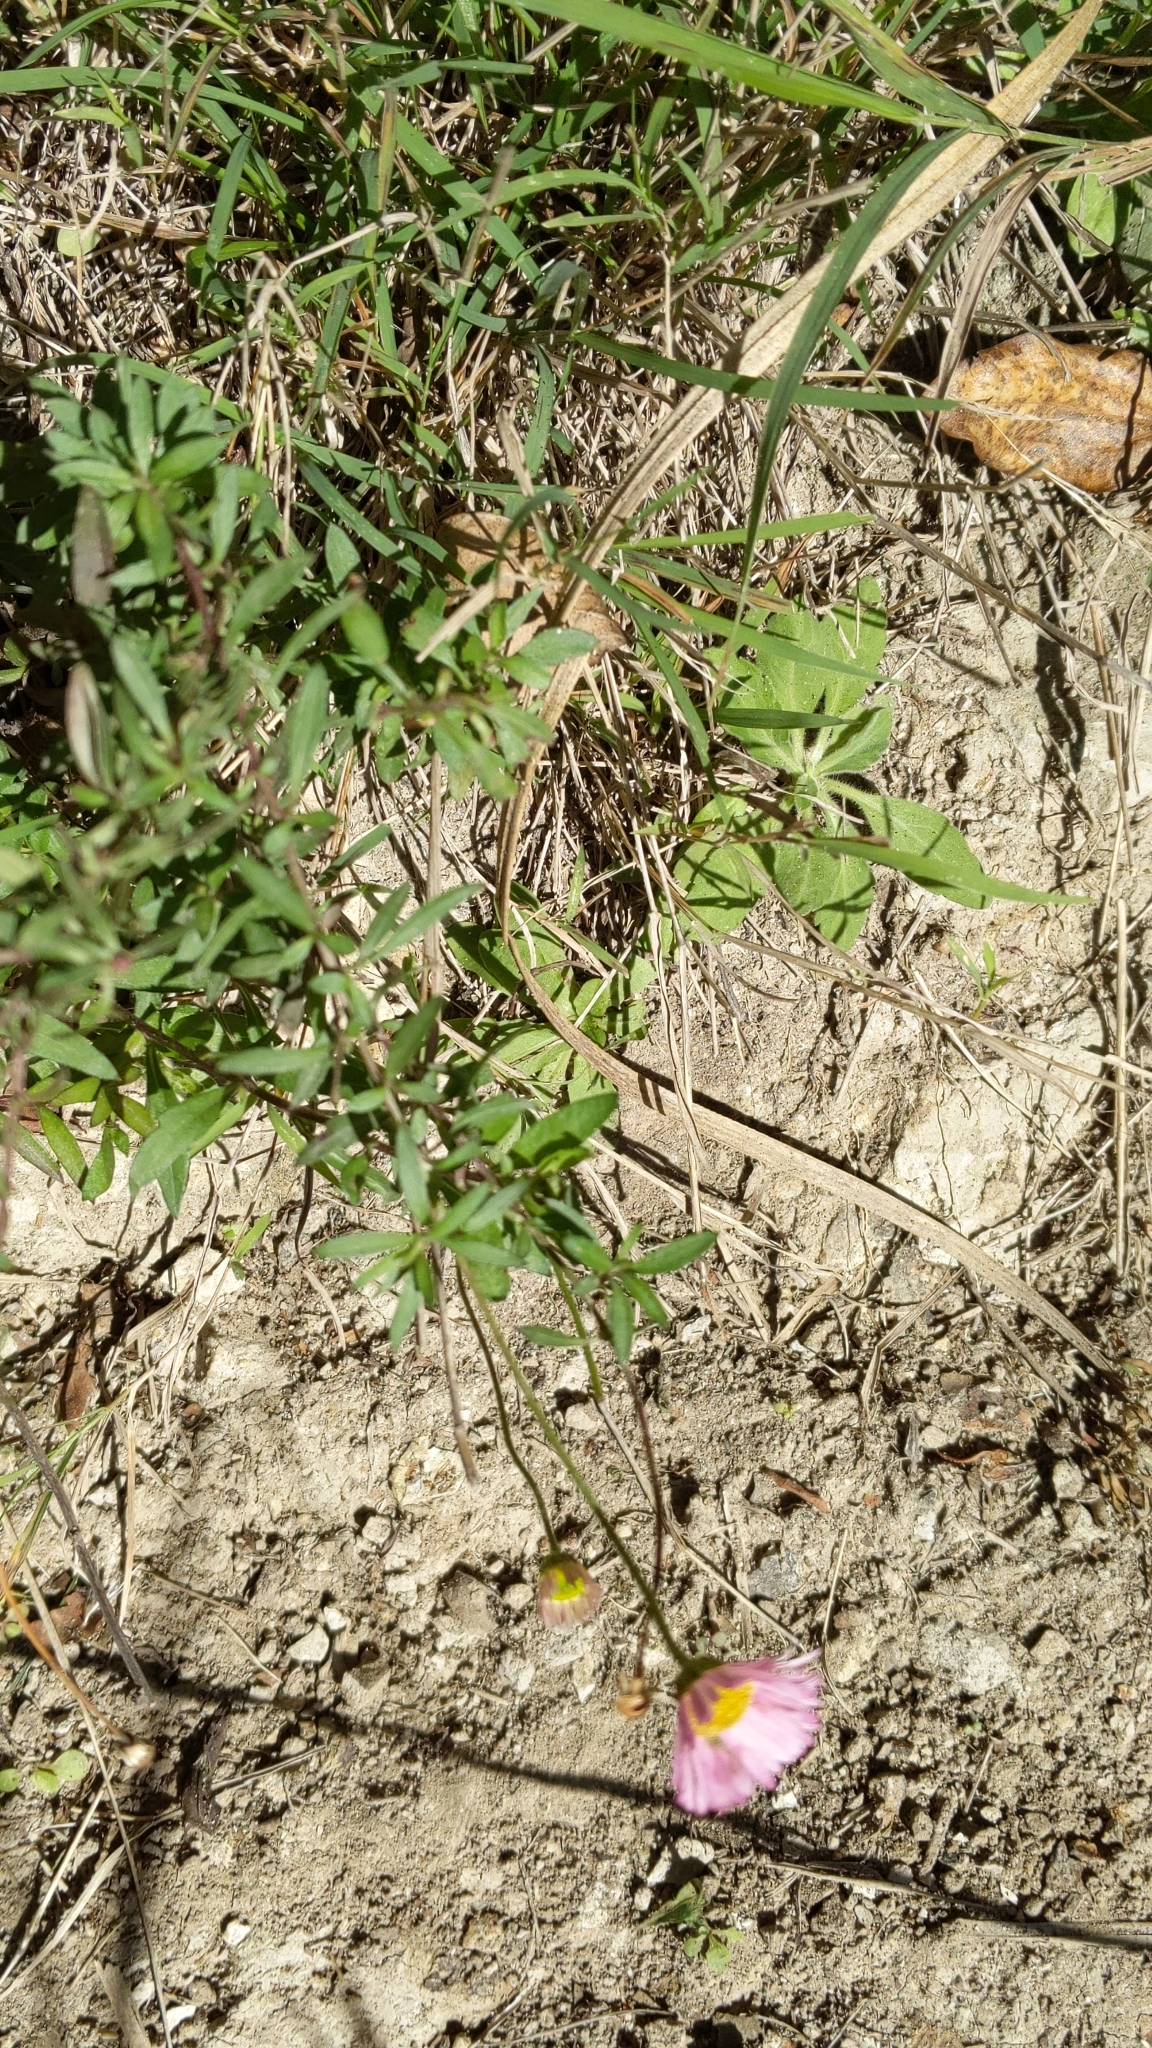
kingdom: Plantae
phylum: Tracheophyta
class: Magnoliopsida
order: Asterales
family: Asteraceae
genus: Erigeron
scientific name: Erigeron karvinskianus
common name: Mexican fleabane
